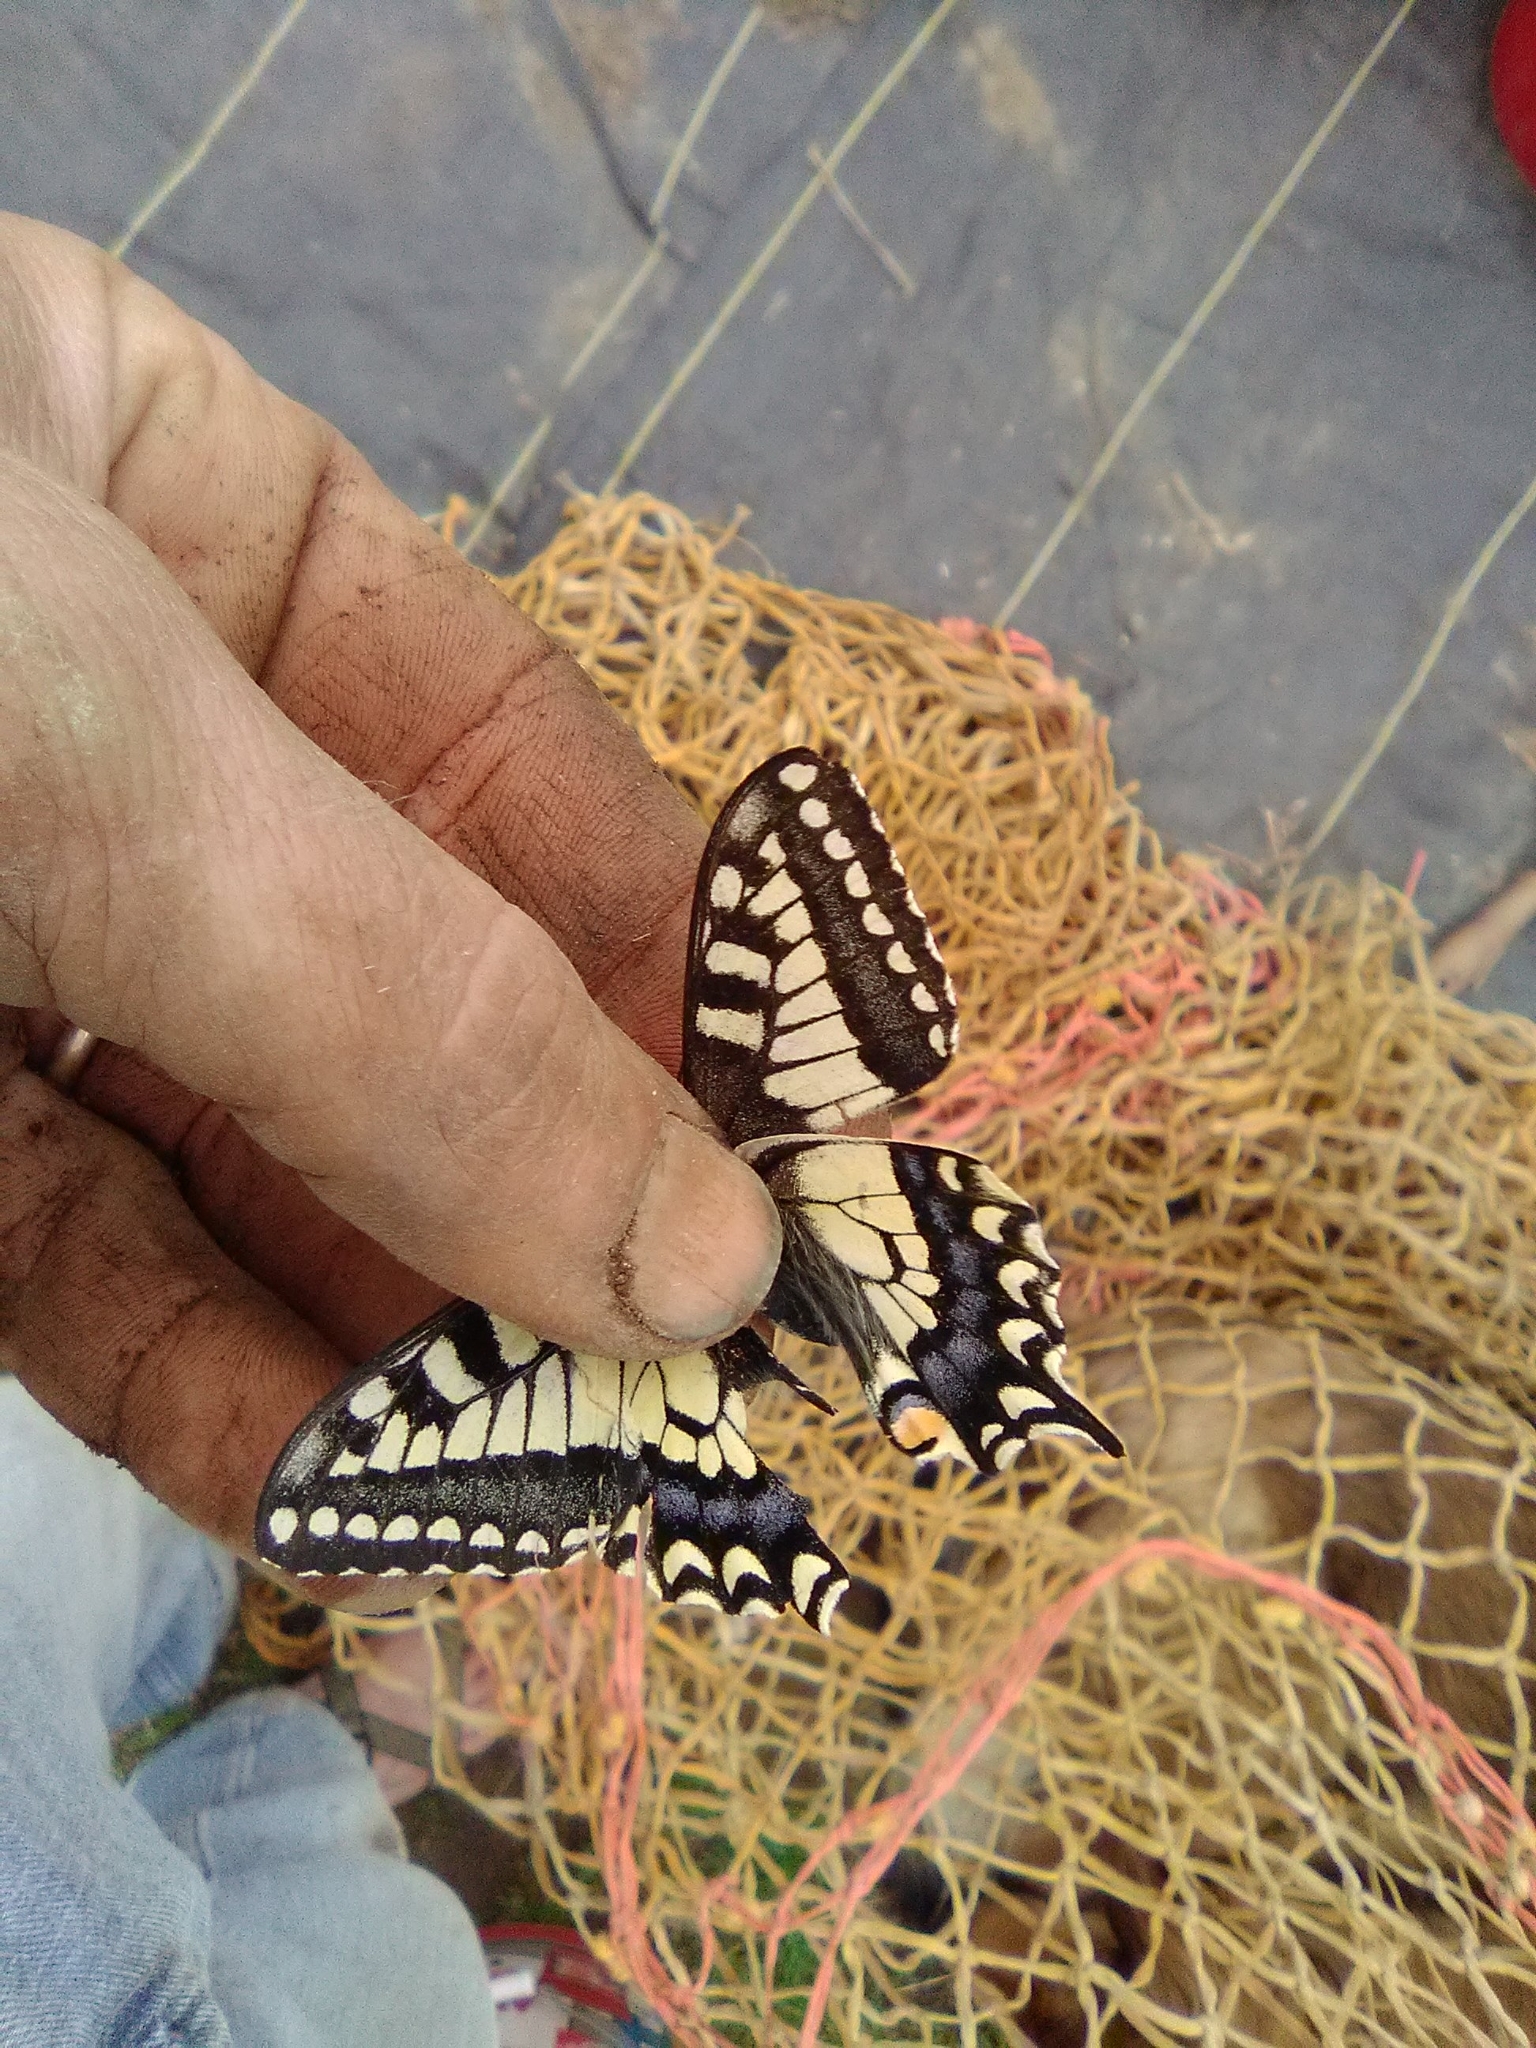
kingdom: Animalia
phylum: Arthropoda
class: Insecta
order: Lepidoptera
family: Papilionidae
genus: Papilio
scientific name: Papilio machaon
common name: Swallowtail
